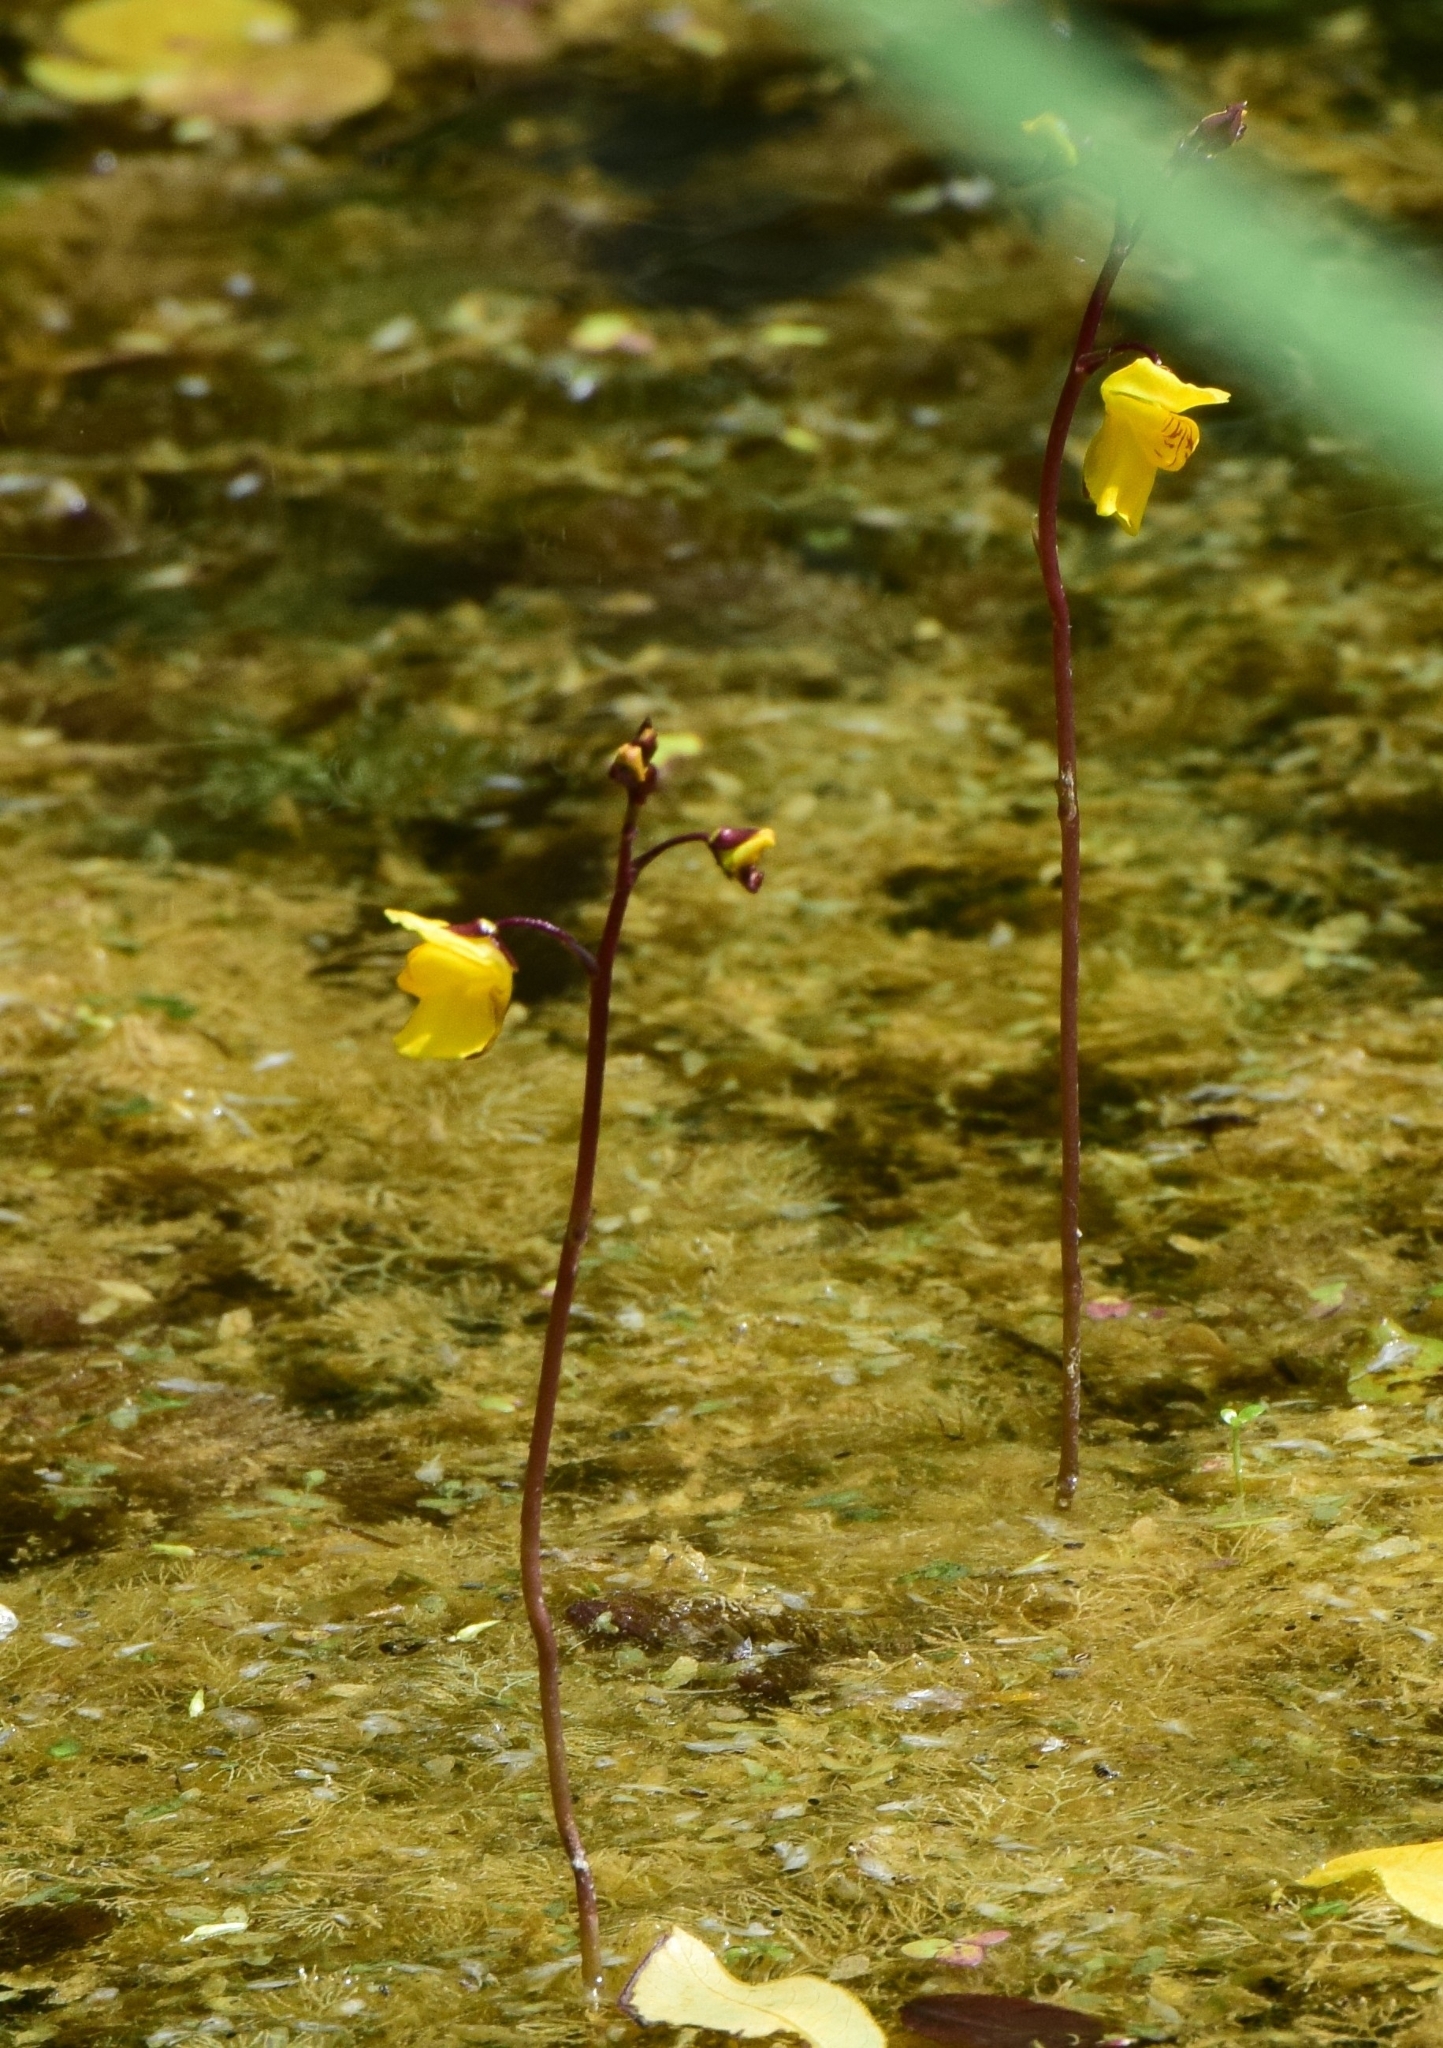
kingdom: Plantae
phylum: Tracheophyta
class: Magnoliopsida
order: Lamiales
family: Lentibulariaceae
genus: Utricularia
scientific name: Utricularia vulgaris
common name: Greater bladderwort
